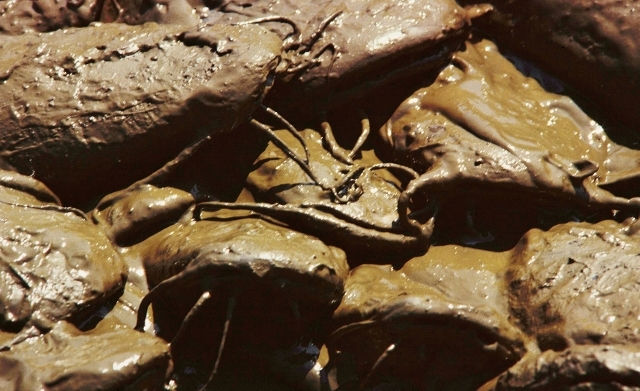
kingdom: Animalia
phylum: Chordata
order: Siluriformes
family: Clariidae
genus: Clarias
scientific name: Clarias gariepinus
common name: African catfish
